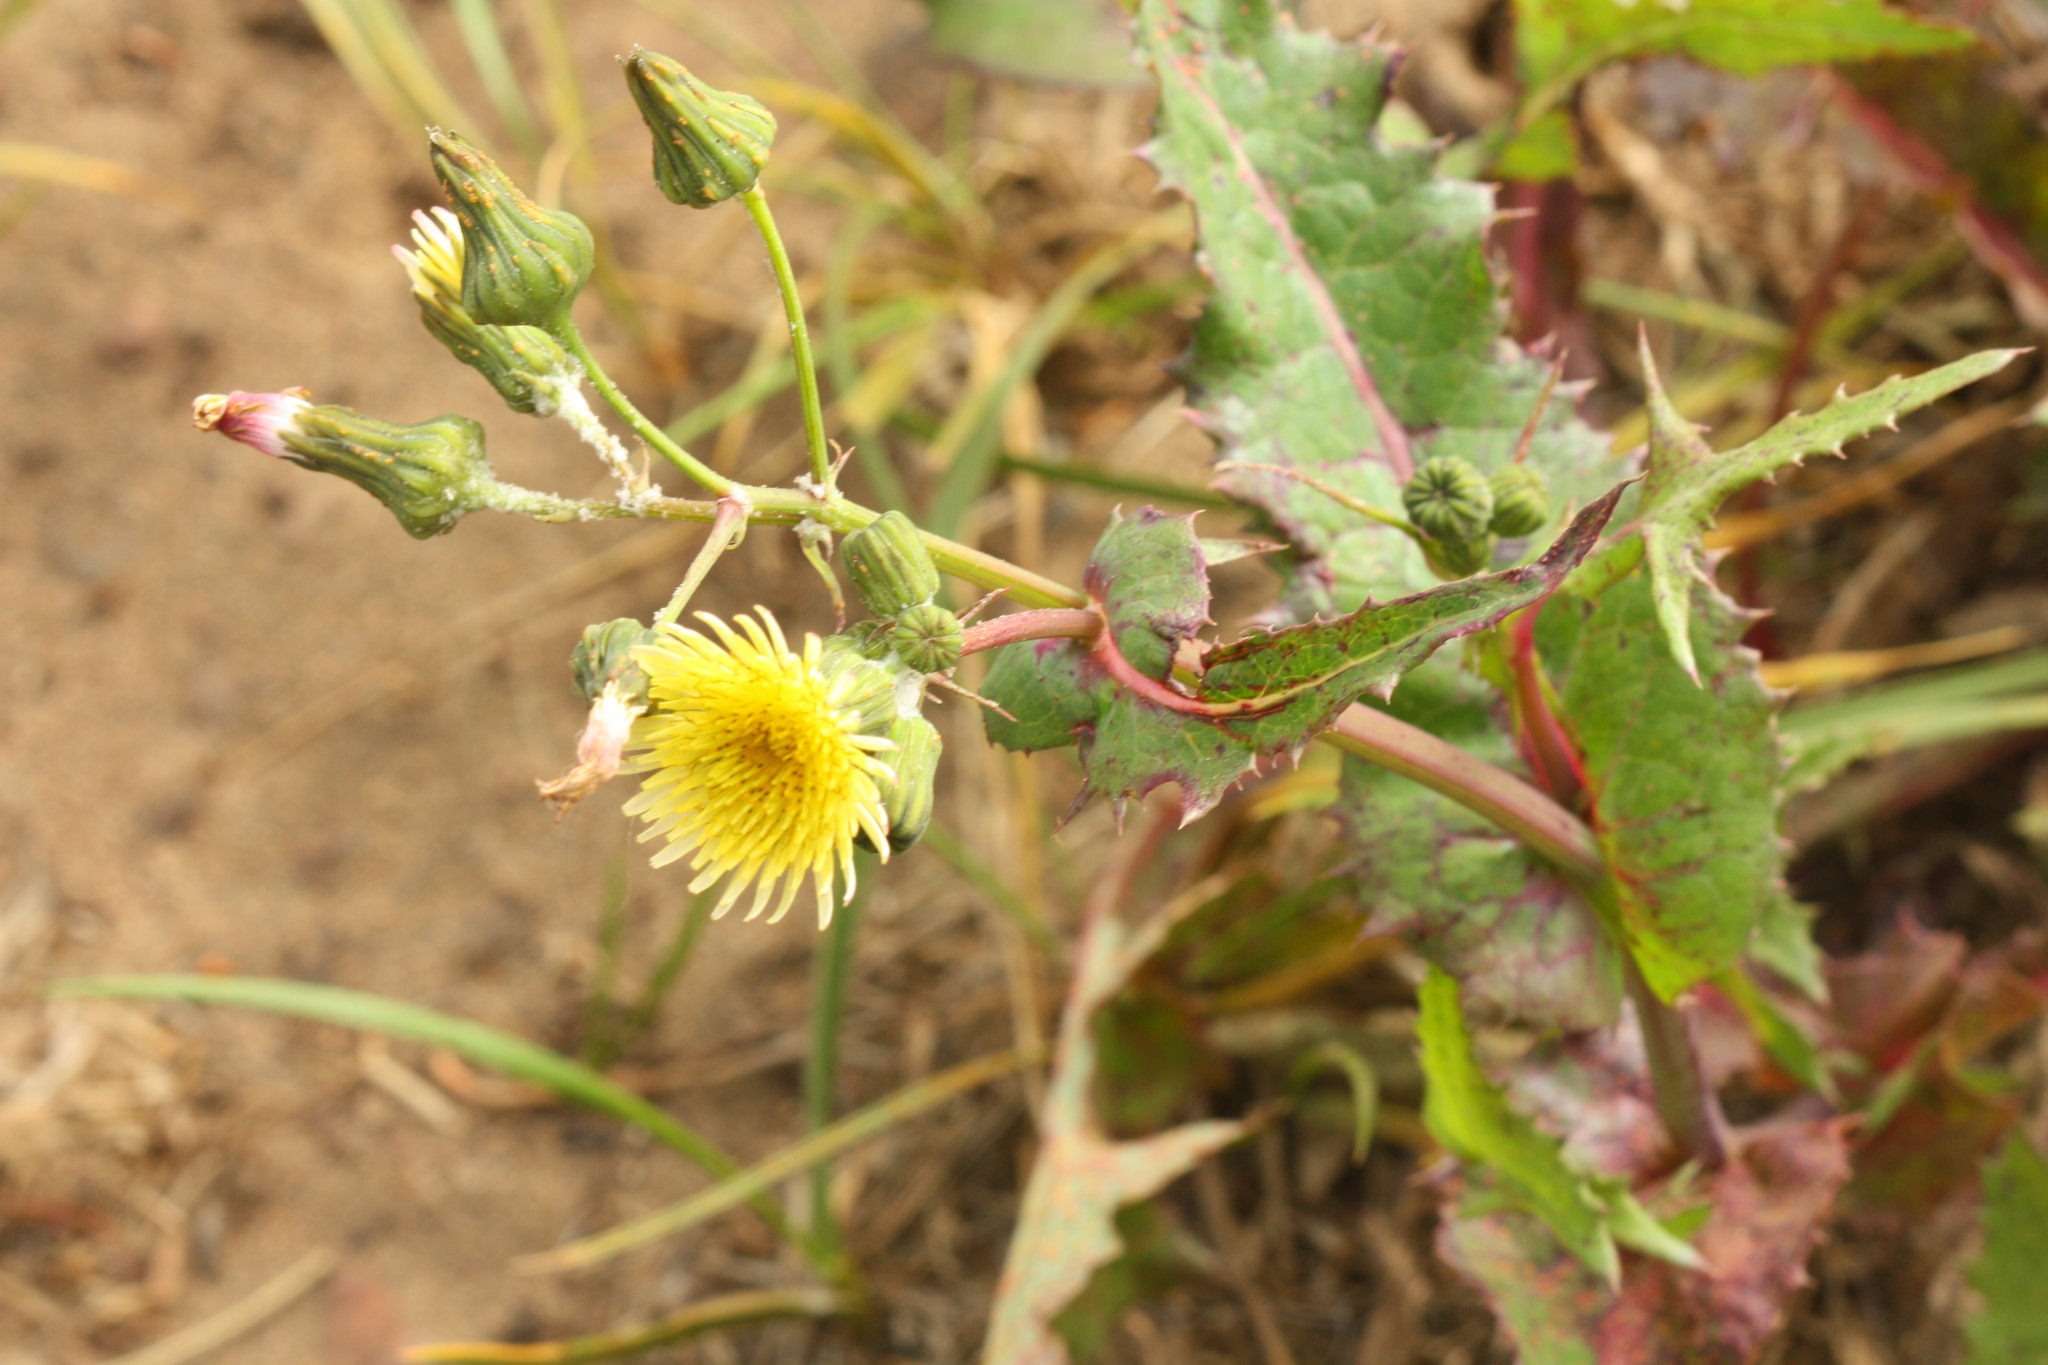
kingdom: Plantae
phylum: Tracheophyta
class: Magnoliopsida
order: Asterales
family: Asteraceae
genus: Sonchus
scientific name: Sonchus oleraceus
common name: Common sowthistle
